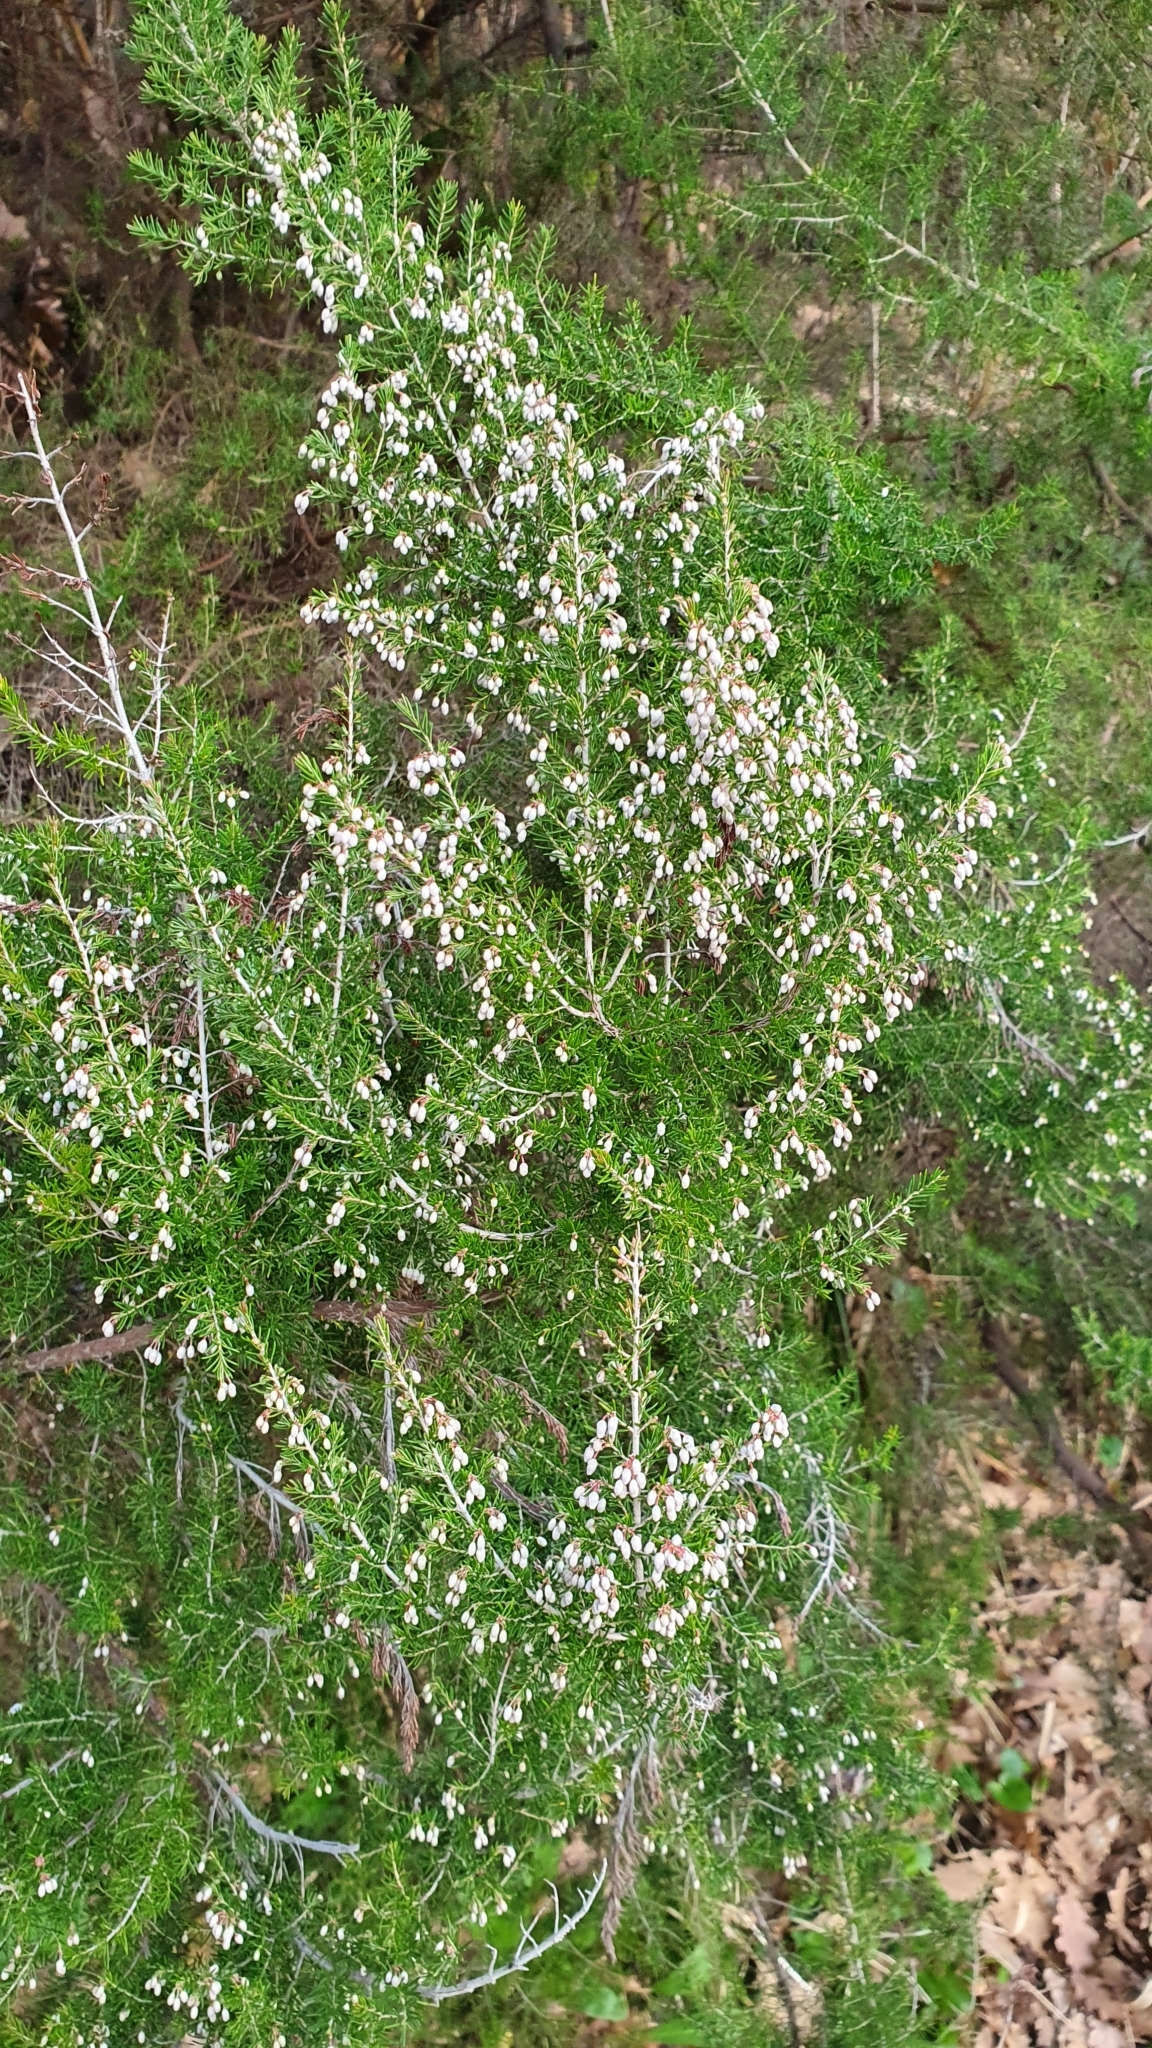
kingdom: Plantae
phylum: Tracheophyta
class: Magnoliopsida
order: Ericales
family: Ericaceae
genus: Erica
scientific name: Erica arborea
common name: Tree heath
